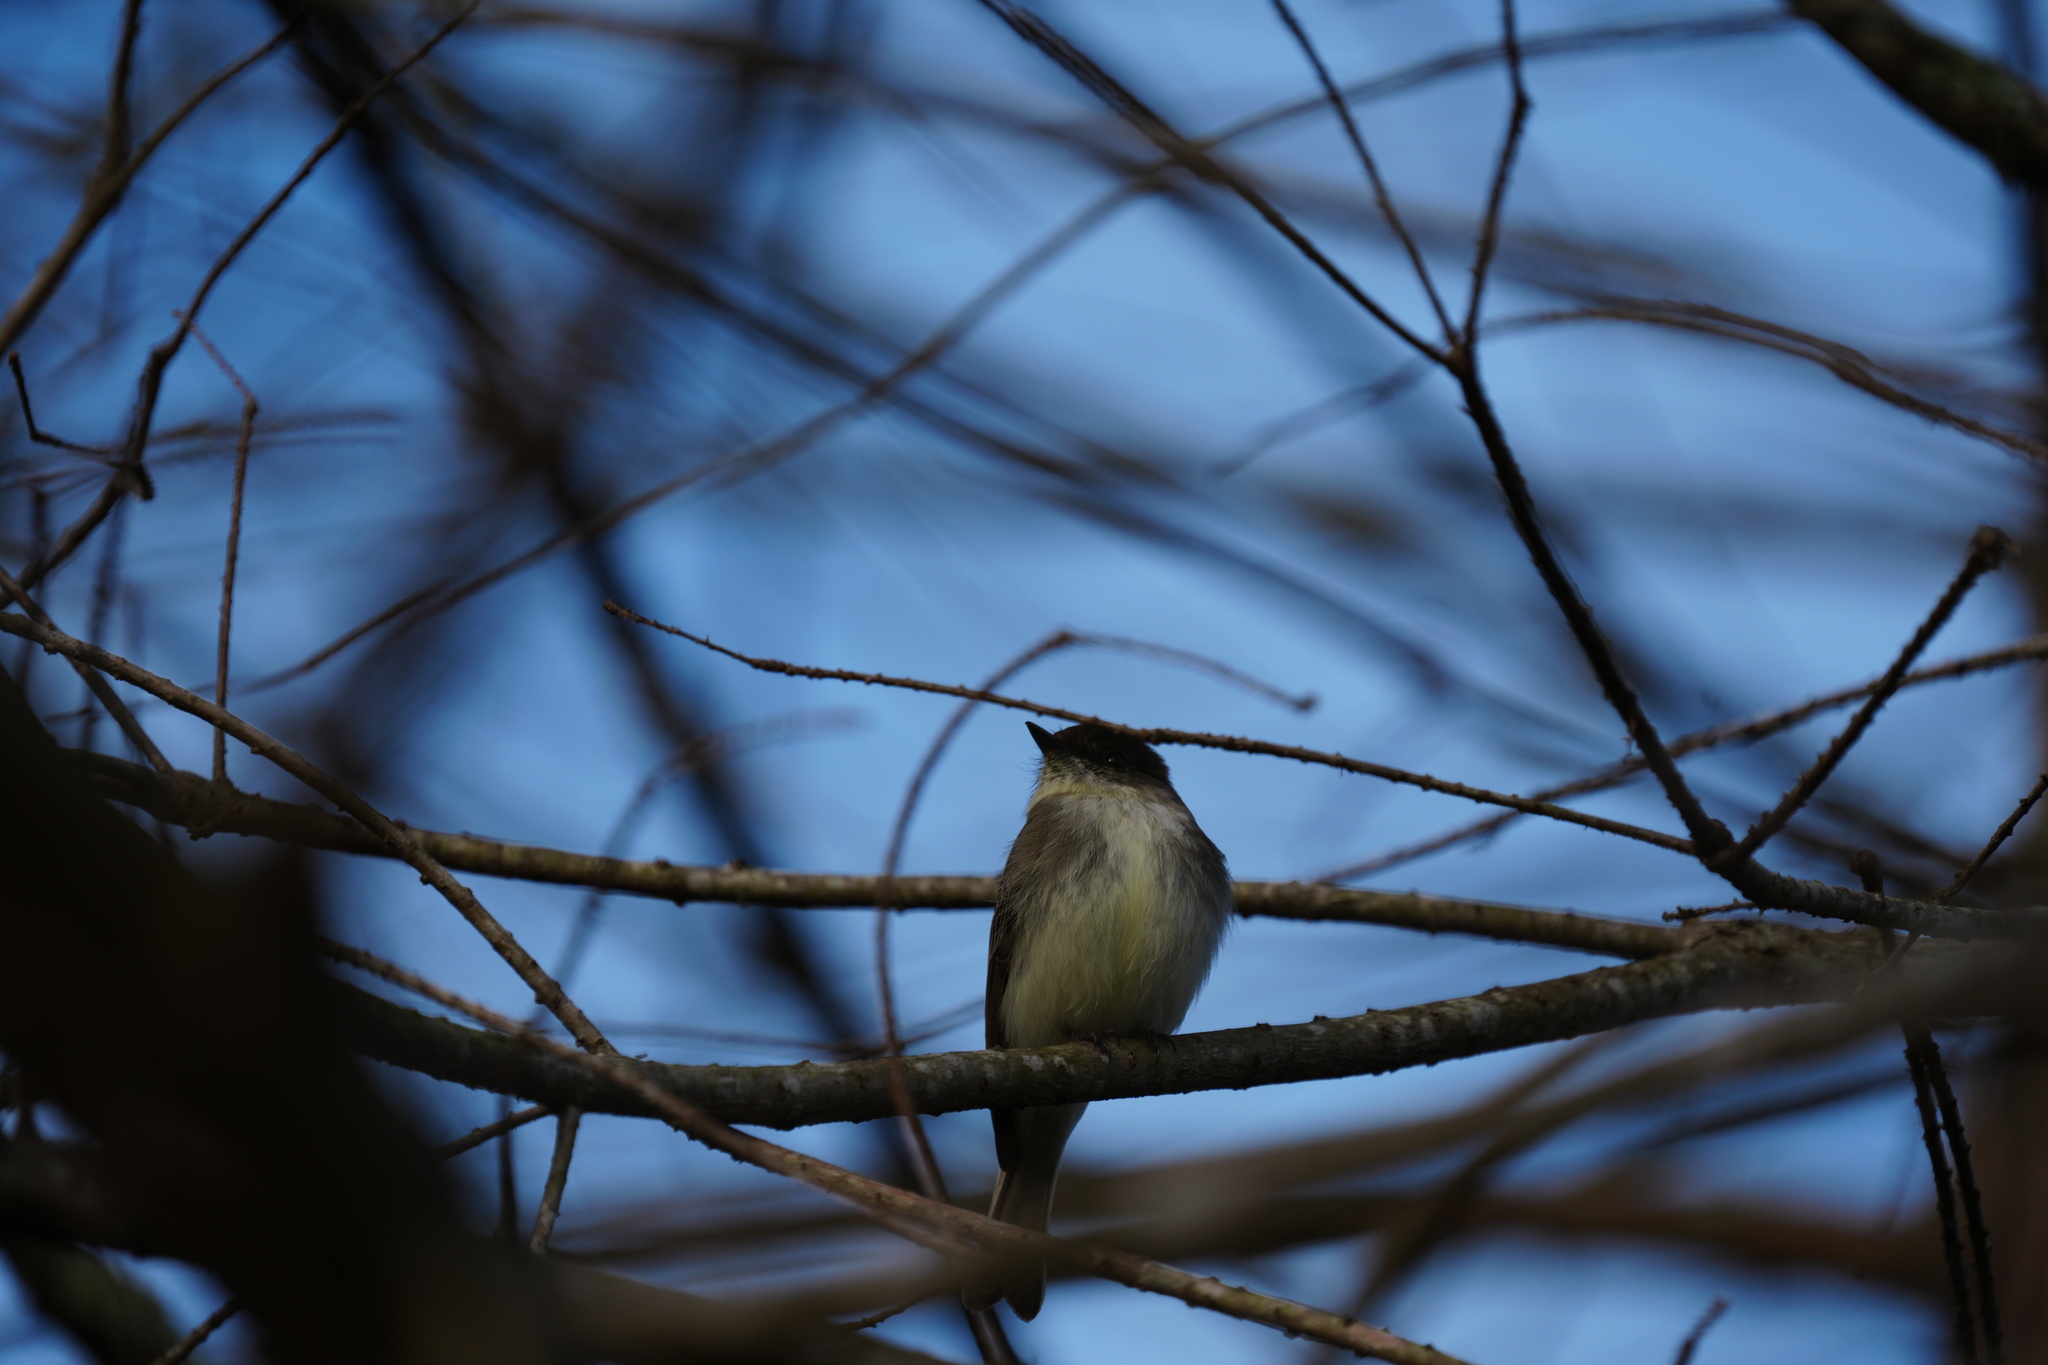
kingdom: Animalia
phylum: Chordata
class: Aves
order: Passeriformes
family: Tyrannidae
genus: Sayornis
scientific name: Sayornis phoebe
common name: Eastern phoebe
